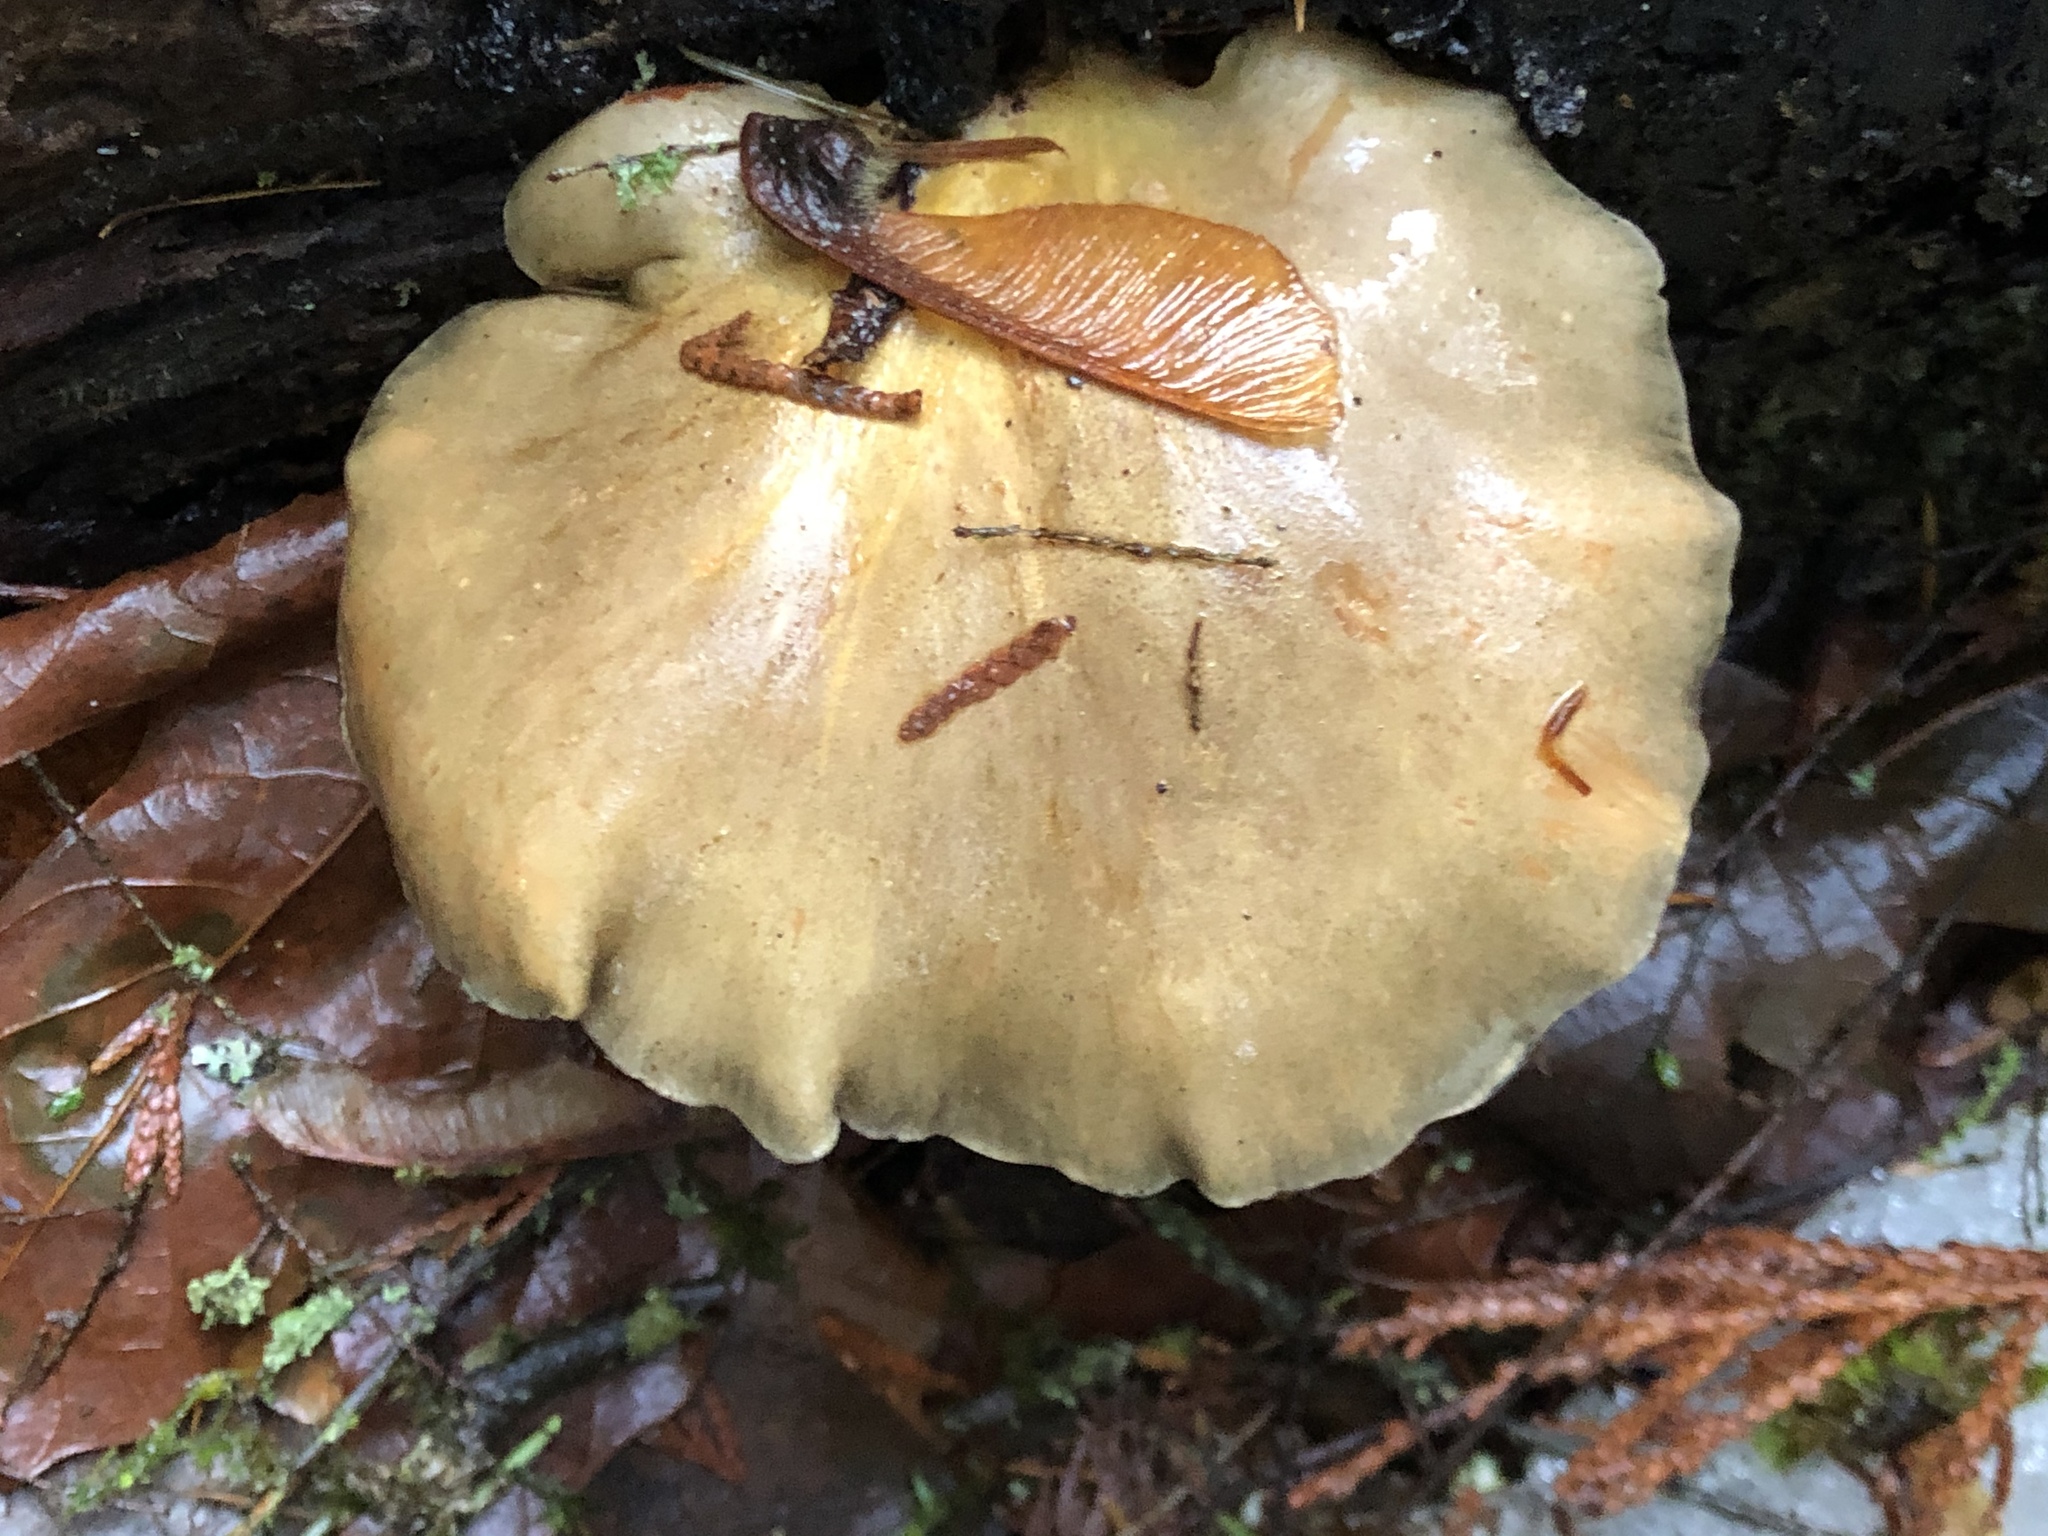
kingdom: Fungi
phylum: Basidiomycota
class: Agaricomycetes
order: Agaricales
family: Sarcomyxaceae
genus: Sarcomyxa
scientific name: Sarcomyxa serotina
